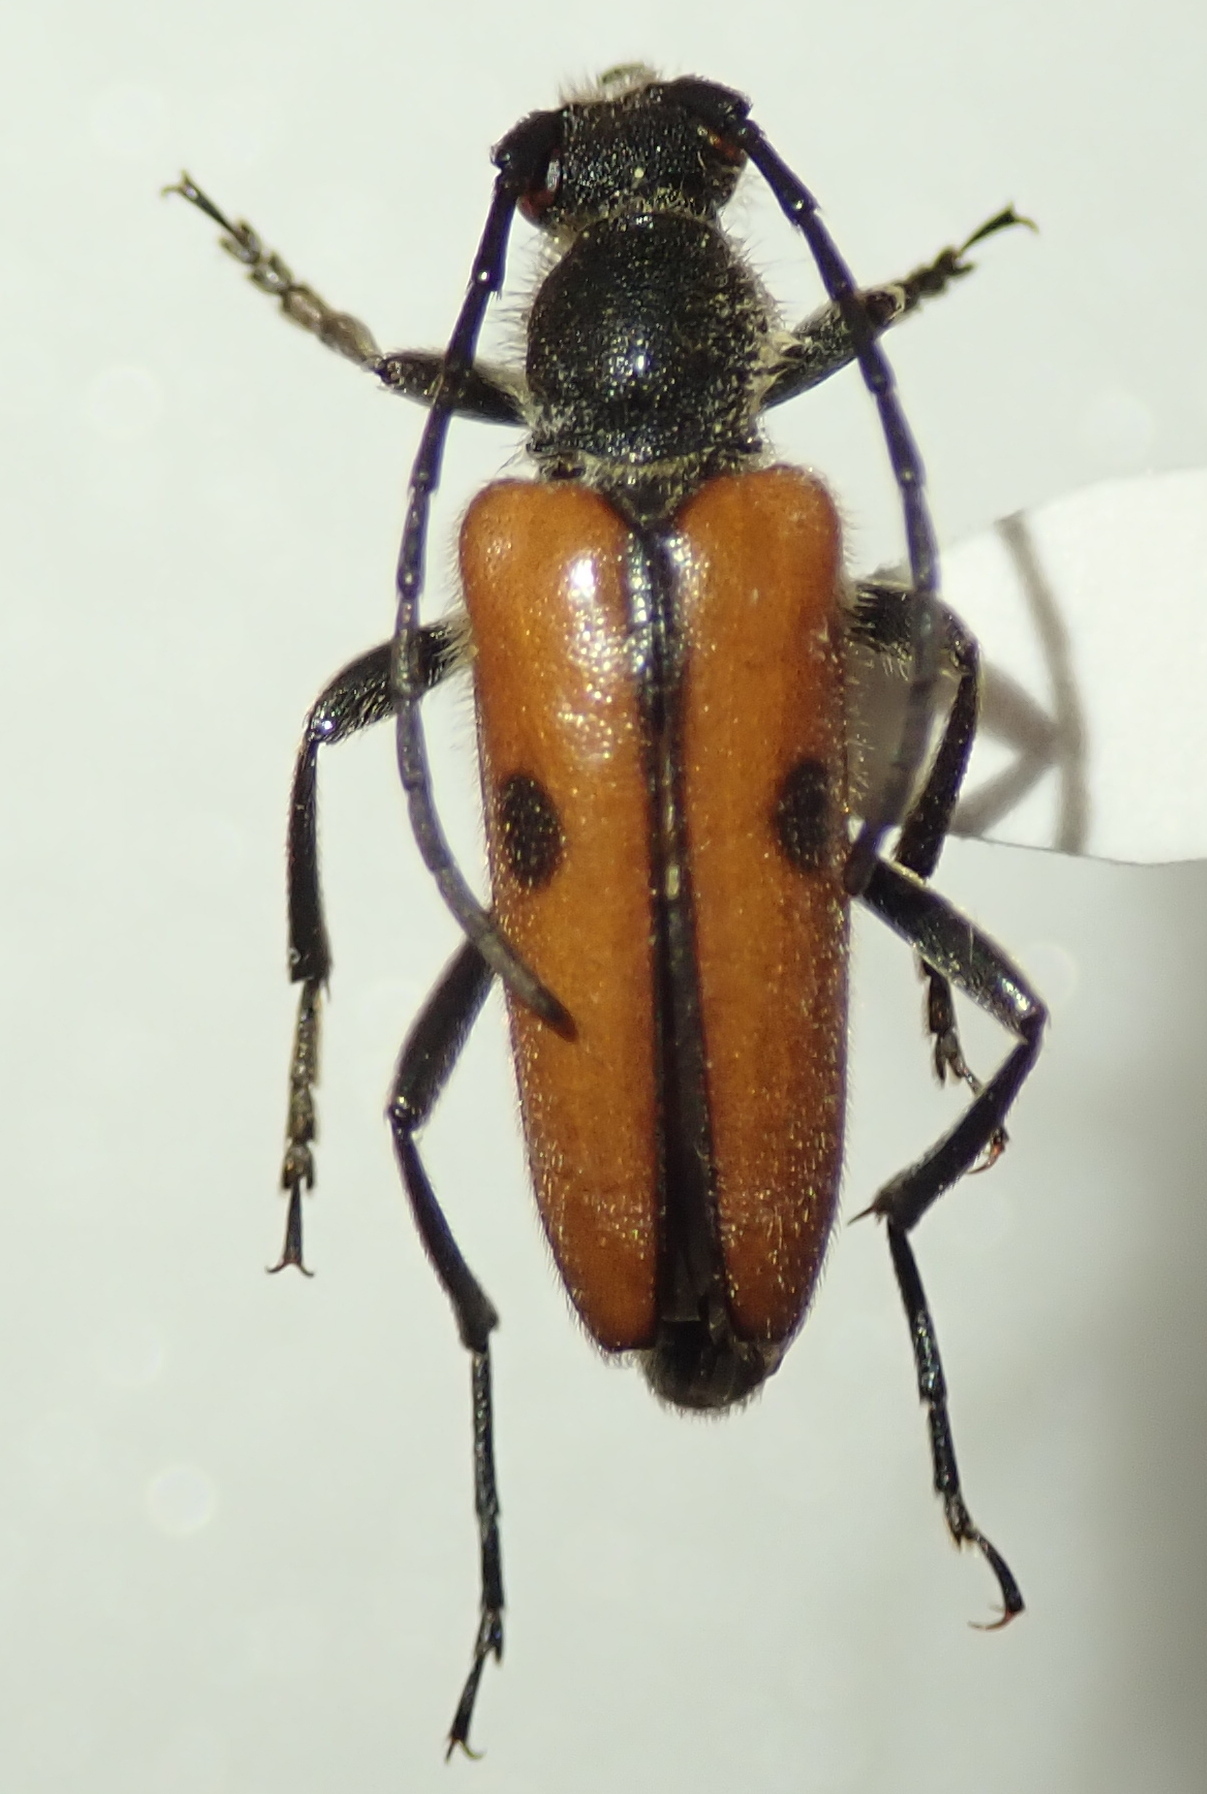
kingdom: Animalia
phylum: Arthropoda
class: Insecta
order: Coleoptera
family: Cerambycidae
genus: Vadonia
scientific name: Vadonia unipunctata
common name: Long-horned beetle
